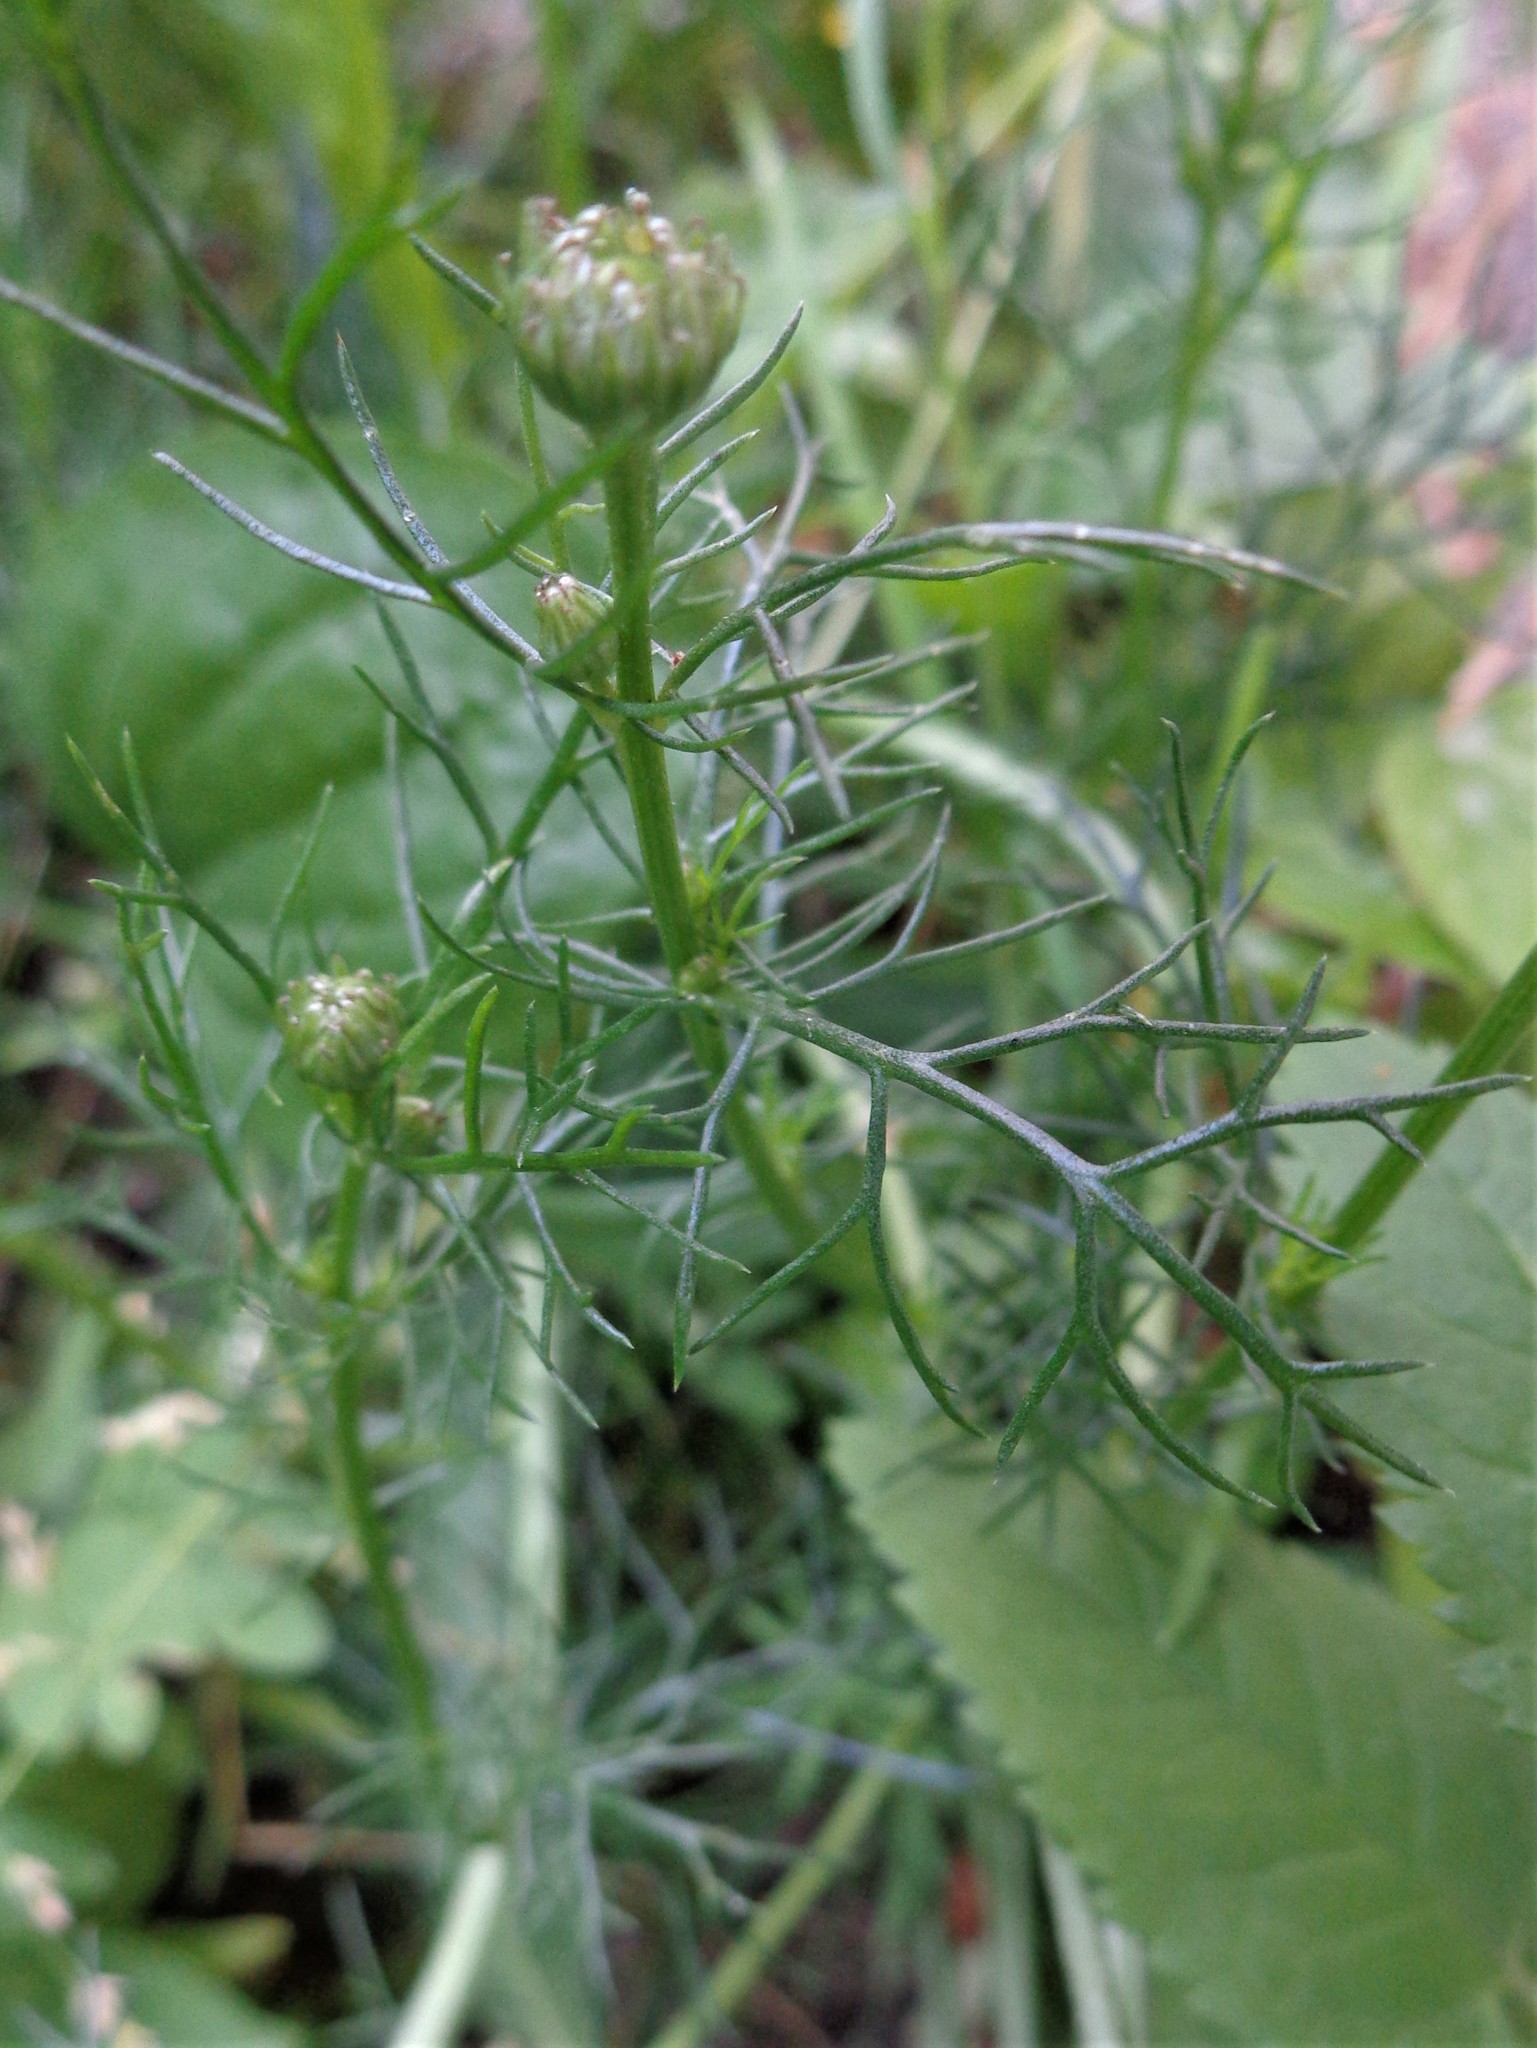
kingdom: Plantae
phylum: Tracheophyta
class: Magnoliopsida
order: Asterales
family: Asteraceae
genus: Tripleurospermum
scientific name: Tripleurospermum inodorum
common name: Scentless mayweed
